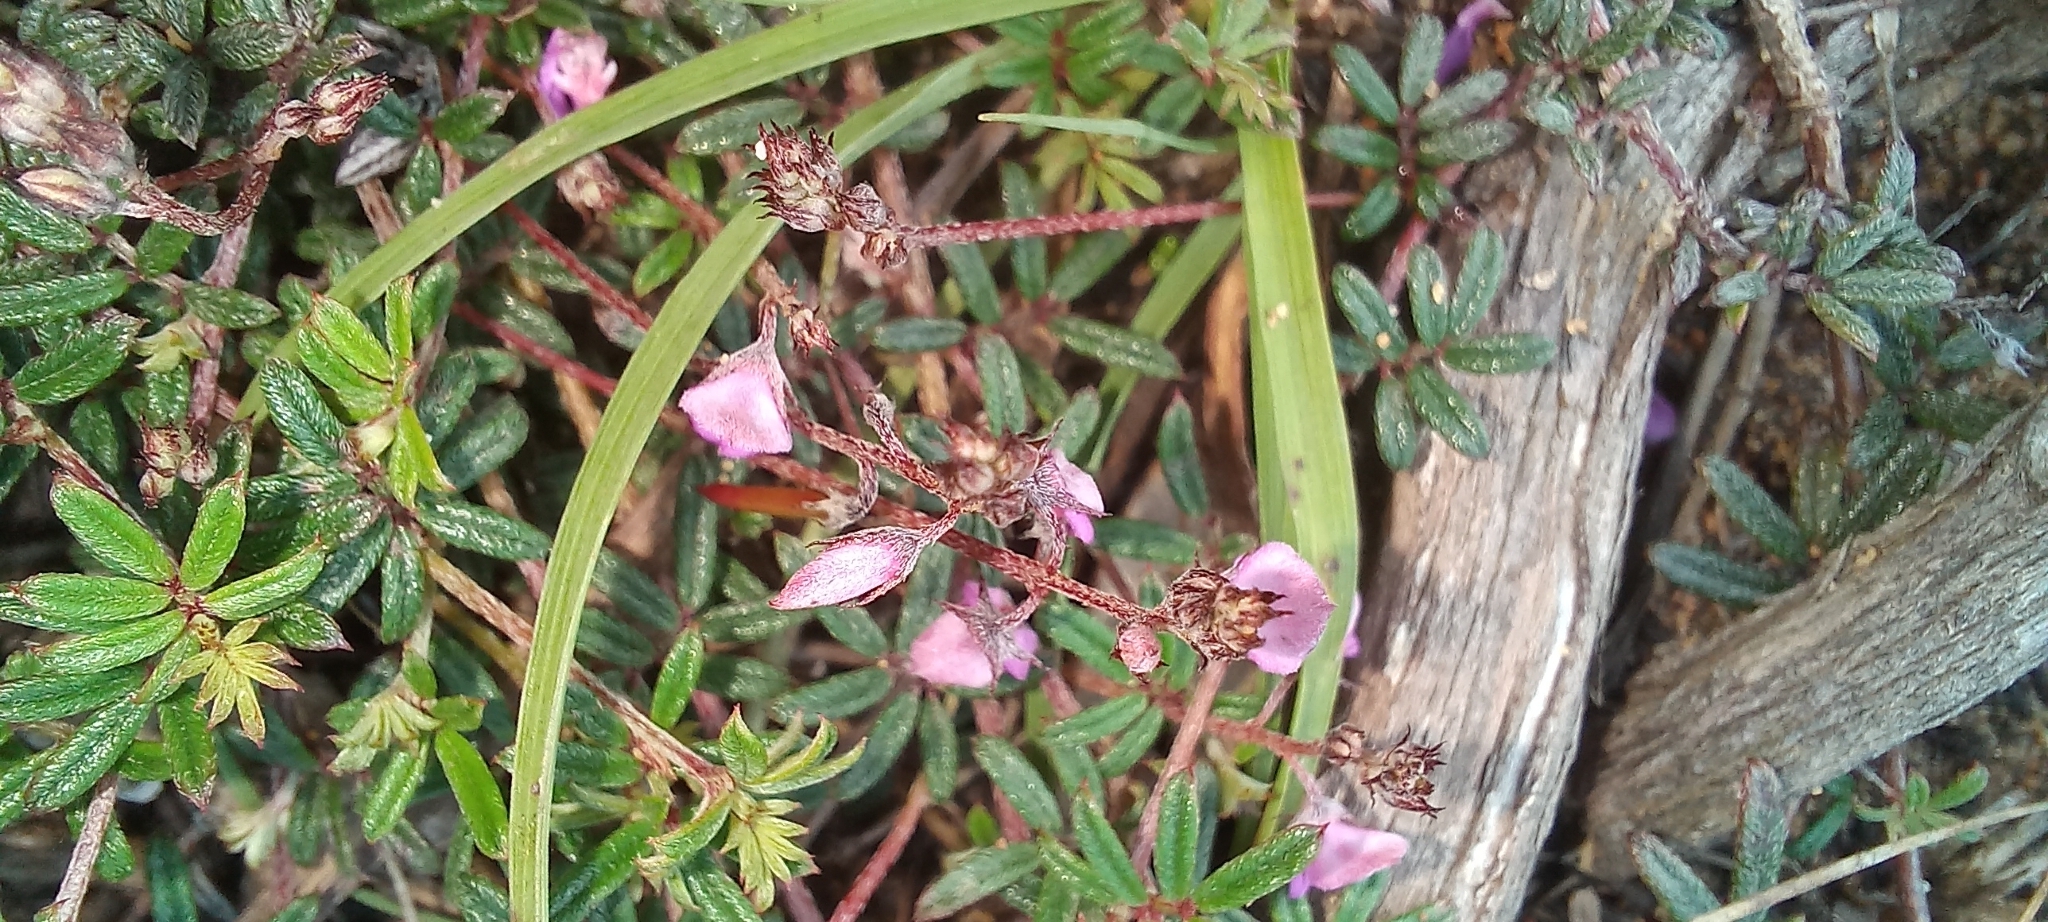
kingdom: Plantae
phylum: Tracheophyta
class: Magnoliopsida
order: Fabales
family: Fabaceae
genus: Indigofera
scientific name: Indigofera angustifolia
